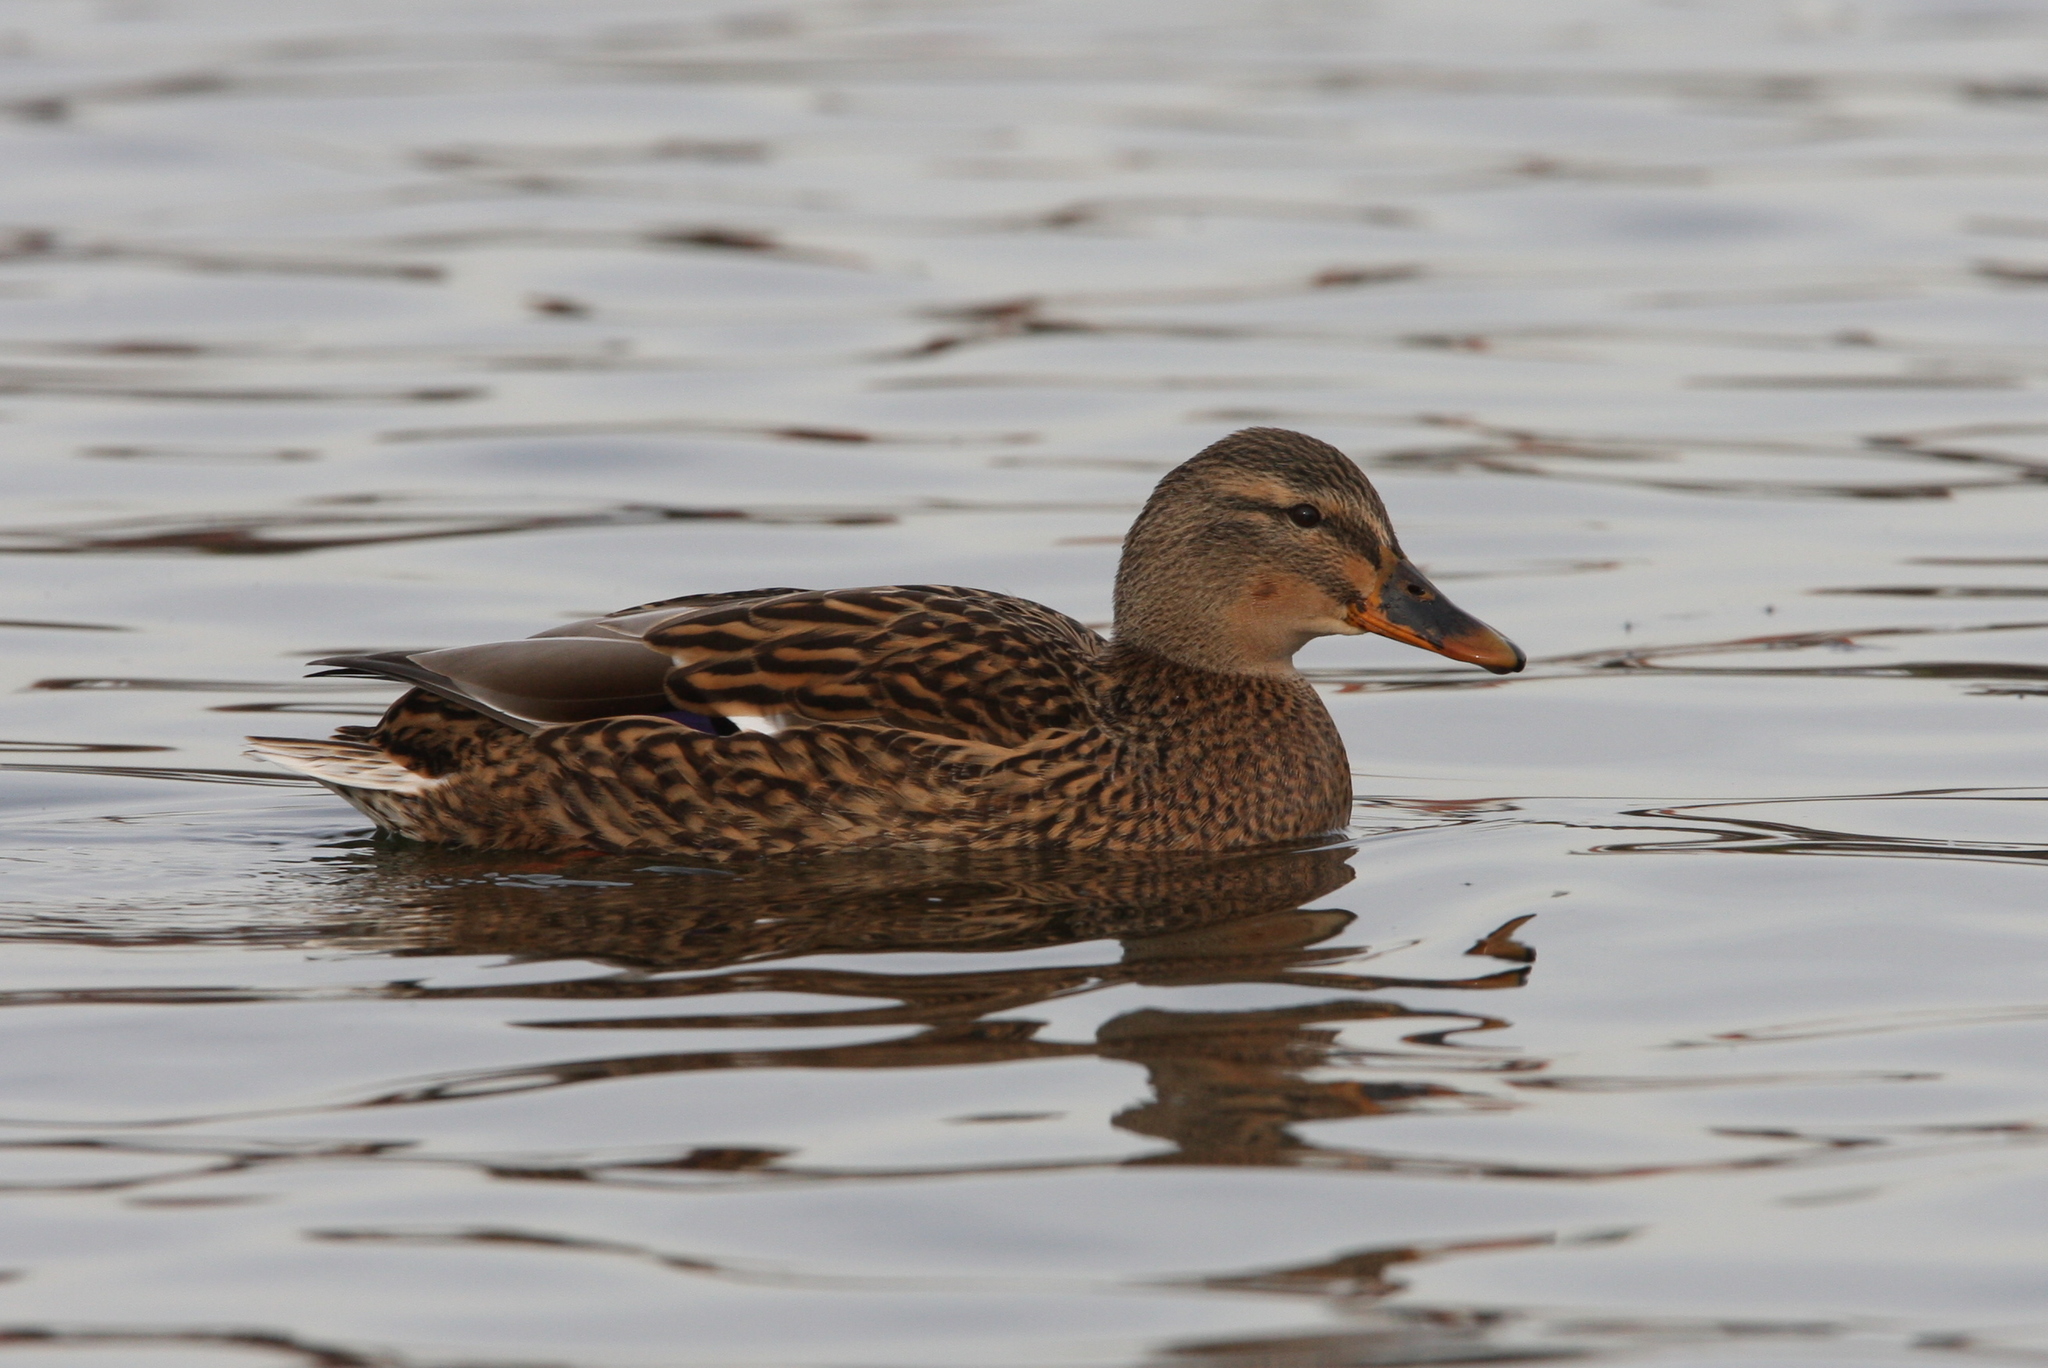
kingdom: Animalia
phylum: Chordata
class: Aves
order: Anseriformes
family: Anatidae
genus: Anas
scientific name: Anas platyrhynchos
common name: Mallard
